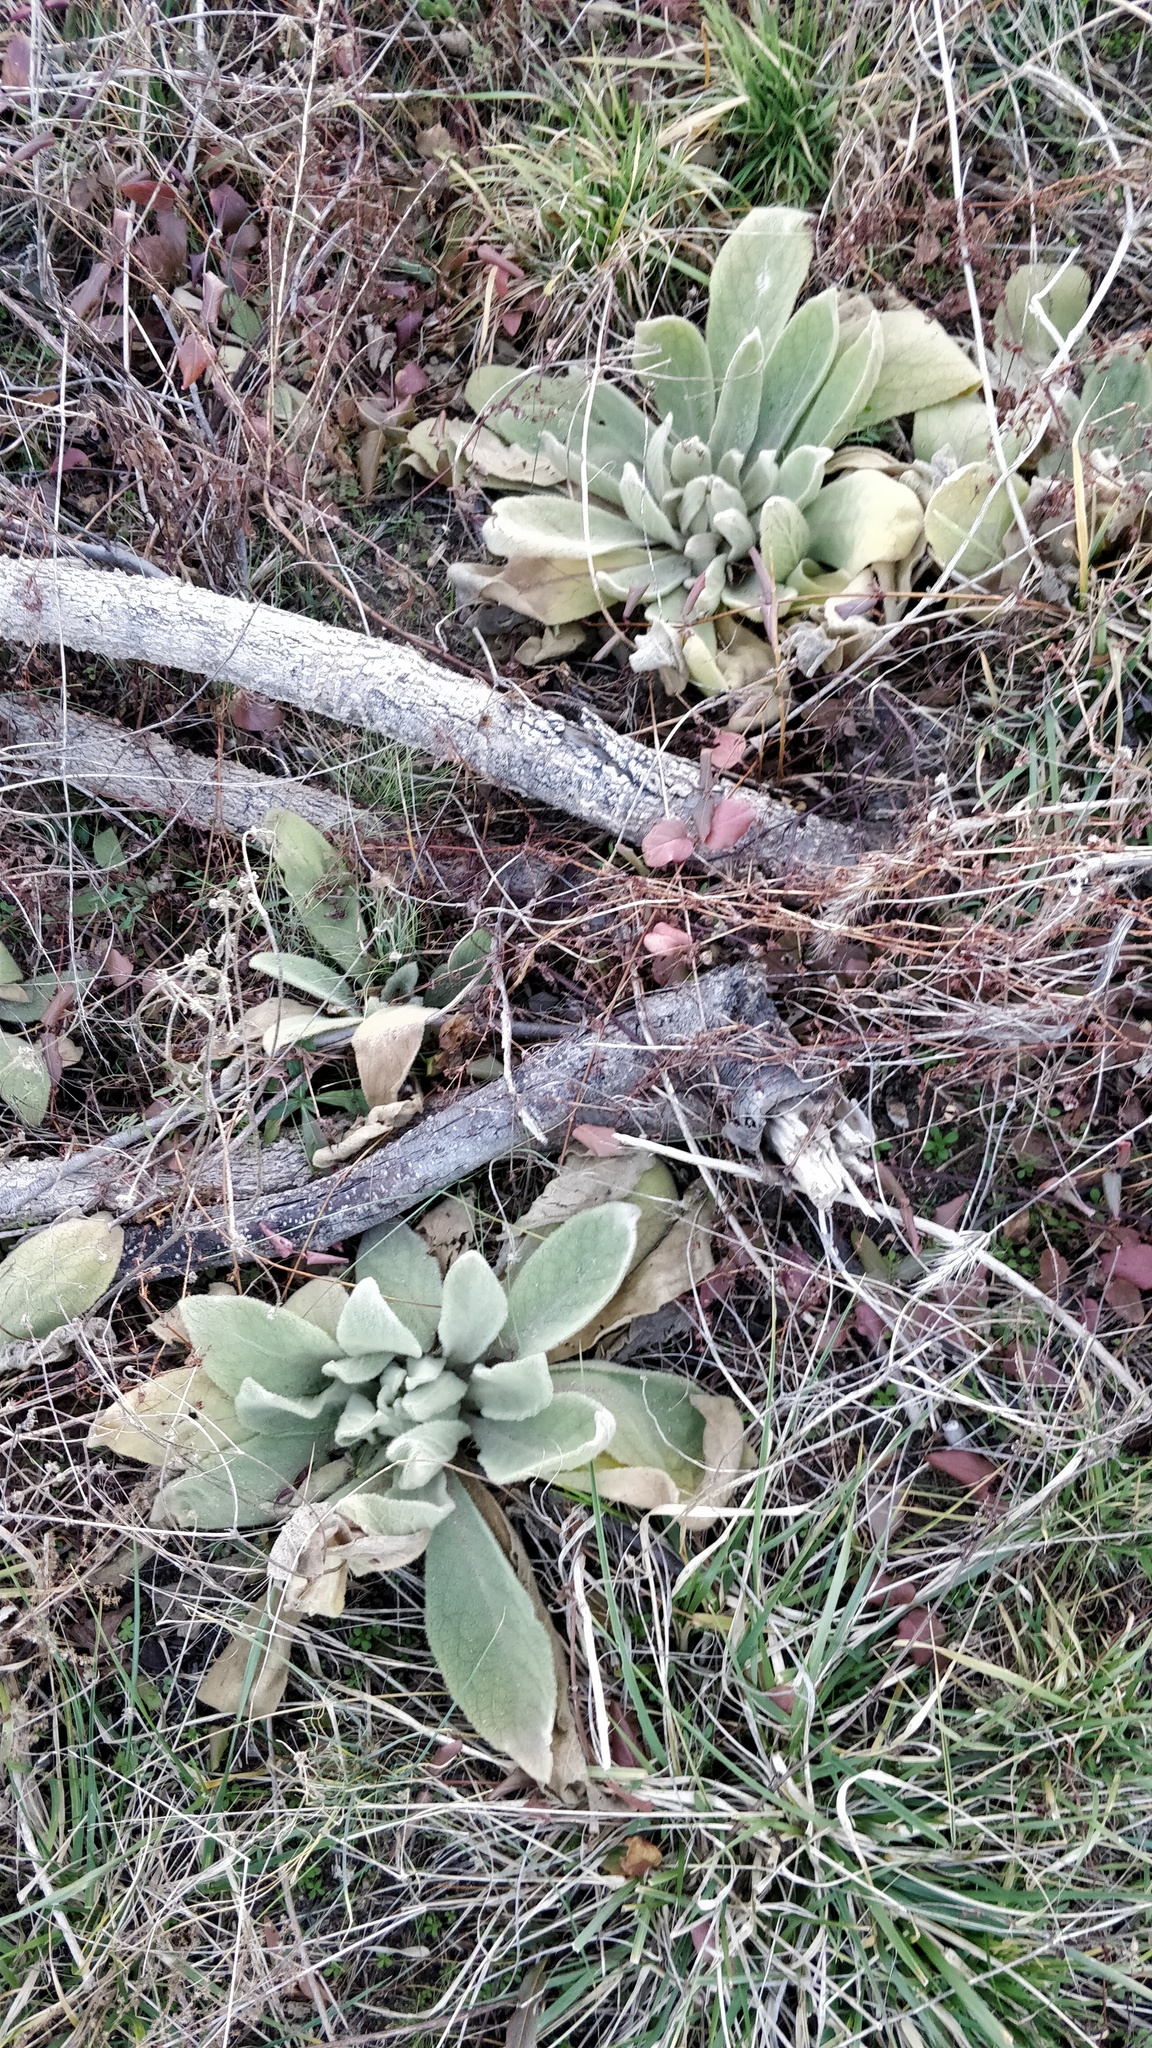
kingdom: Plantae
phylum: Tracheophyta
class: Magnoliopsida
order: Lamiales
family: Scrophulariaceae
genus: Verbascum
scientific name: Verbascum thapsus
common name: Common mullein
